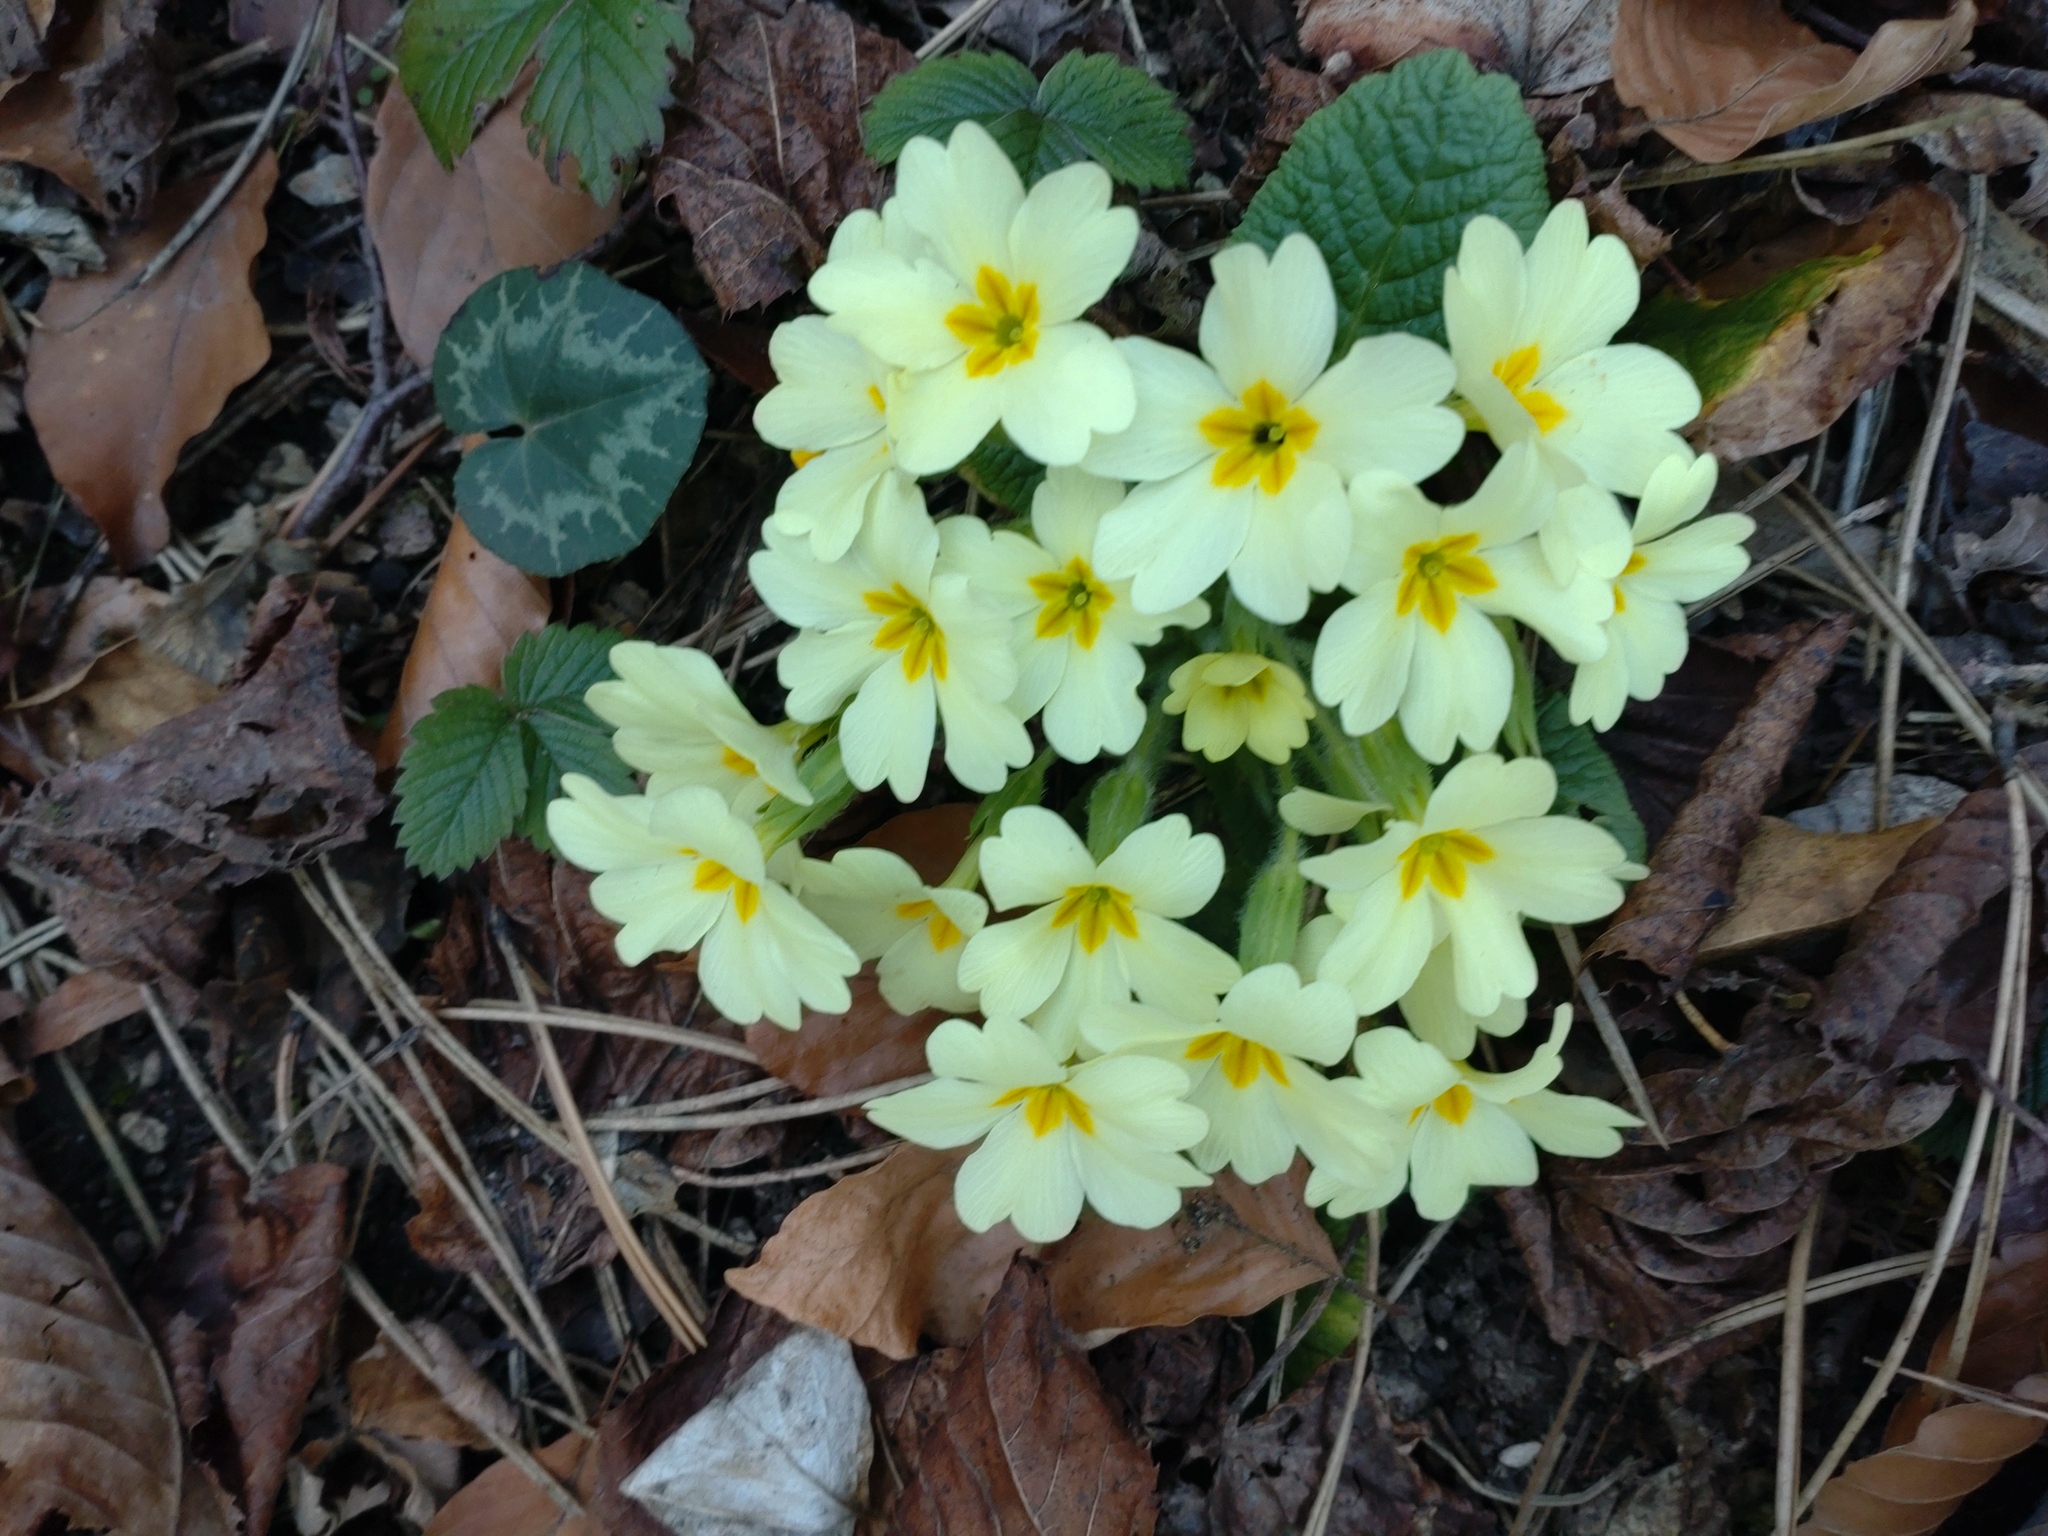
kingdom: Plantae
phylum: Tracheophyta
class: Magnoliopsida
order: Ericales
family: Primulaceae
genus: Primula
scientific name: Primula vulgaris
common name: Primrose
